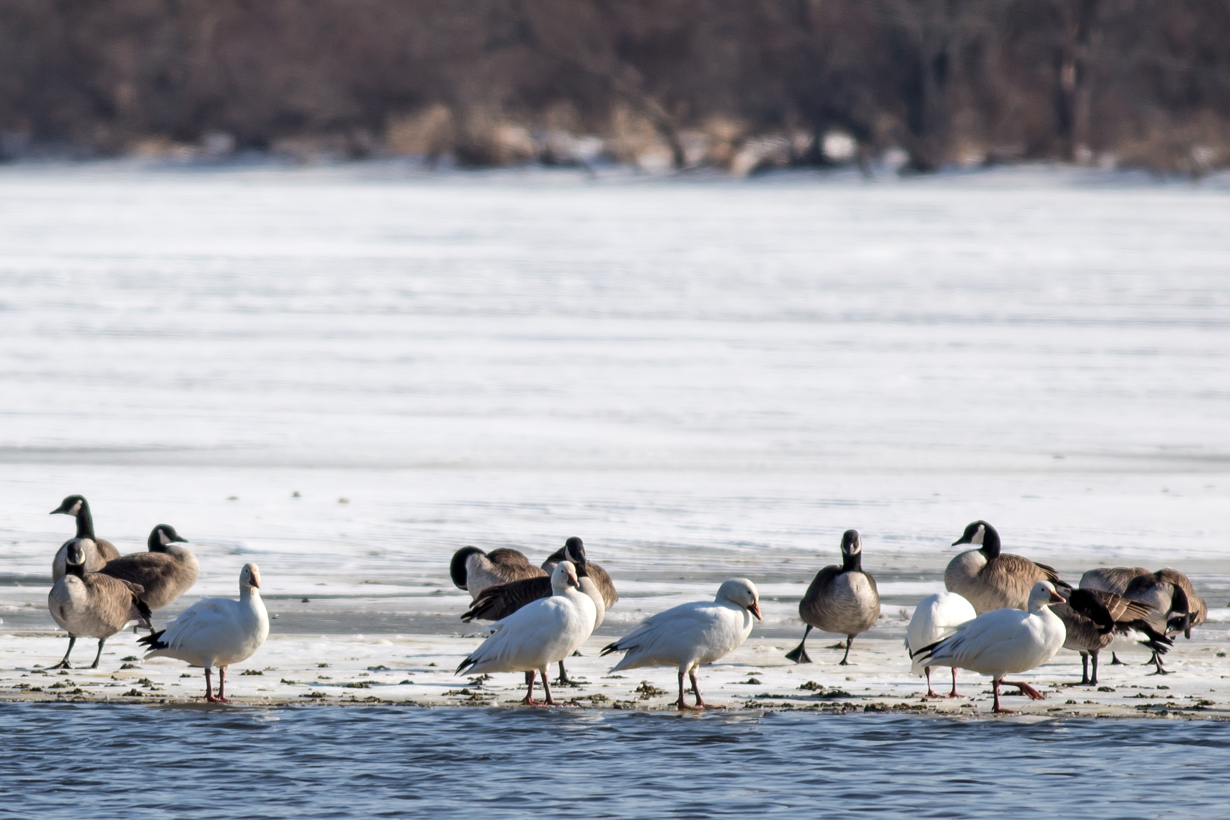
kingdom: Animalia
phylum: Chordata
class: Aves
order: Anseriformes
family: Anatidae
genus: Anser
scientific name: Anser caerulescens
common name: Snow goose
